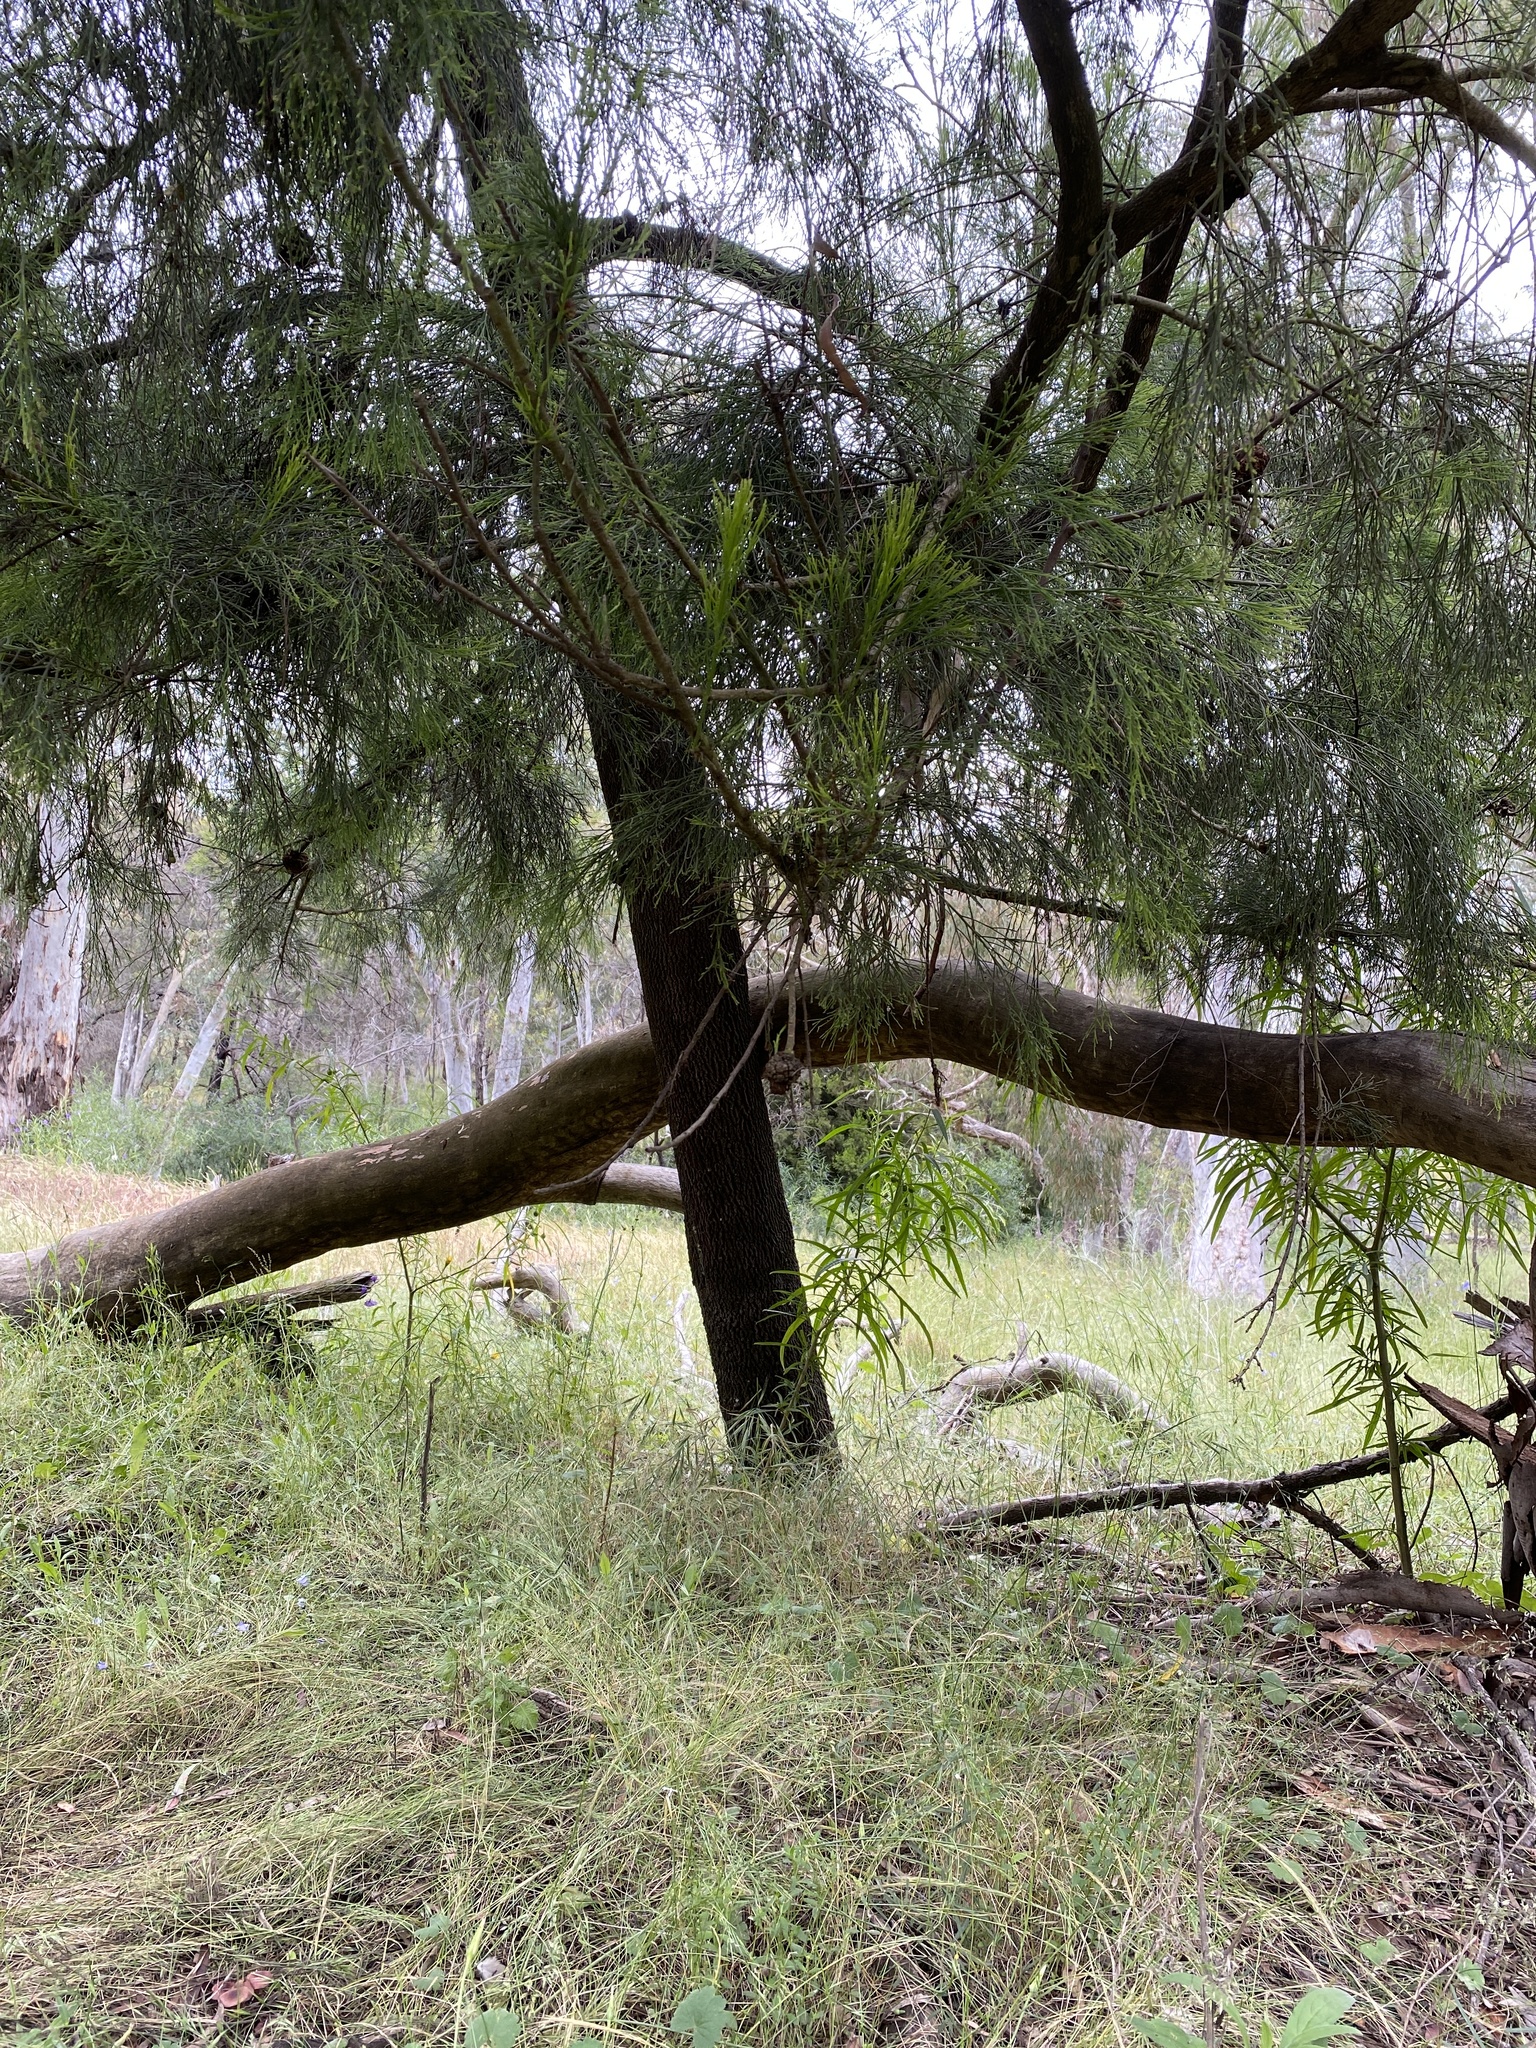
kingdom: Plantae
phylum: Tracheophyta
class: Magnoliopsida
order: Santalales
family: Santalaceae
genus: Exocarpos
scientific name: Exocarpos cupressiformis
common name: Cherry ballart
